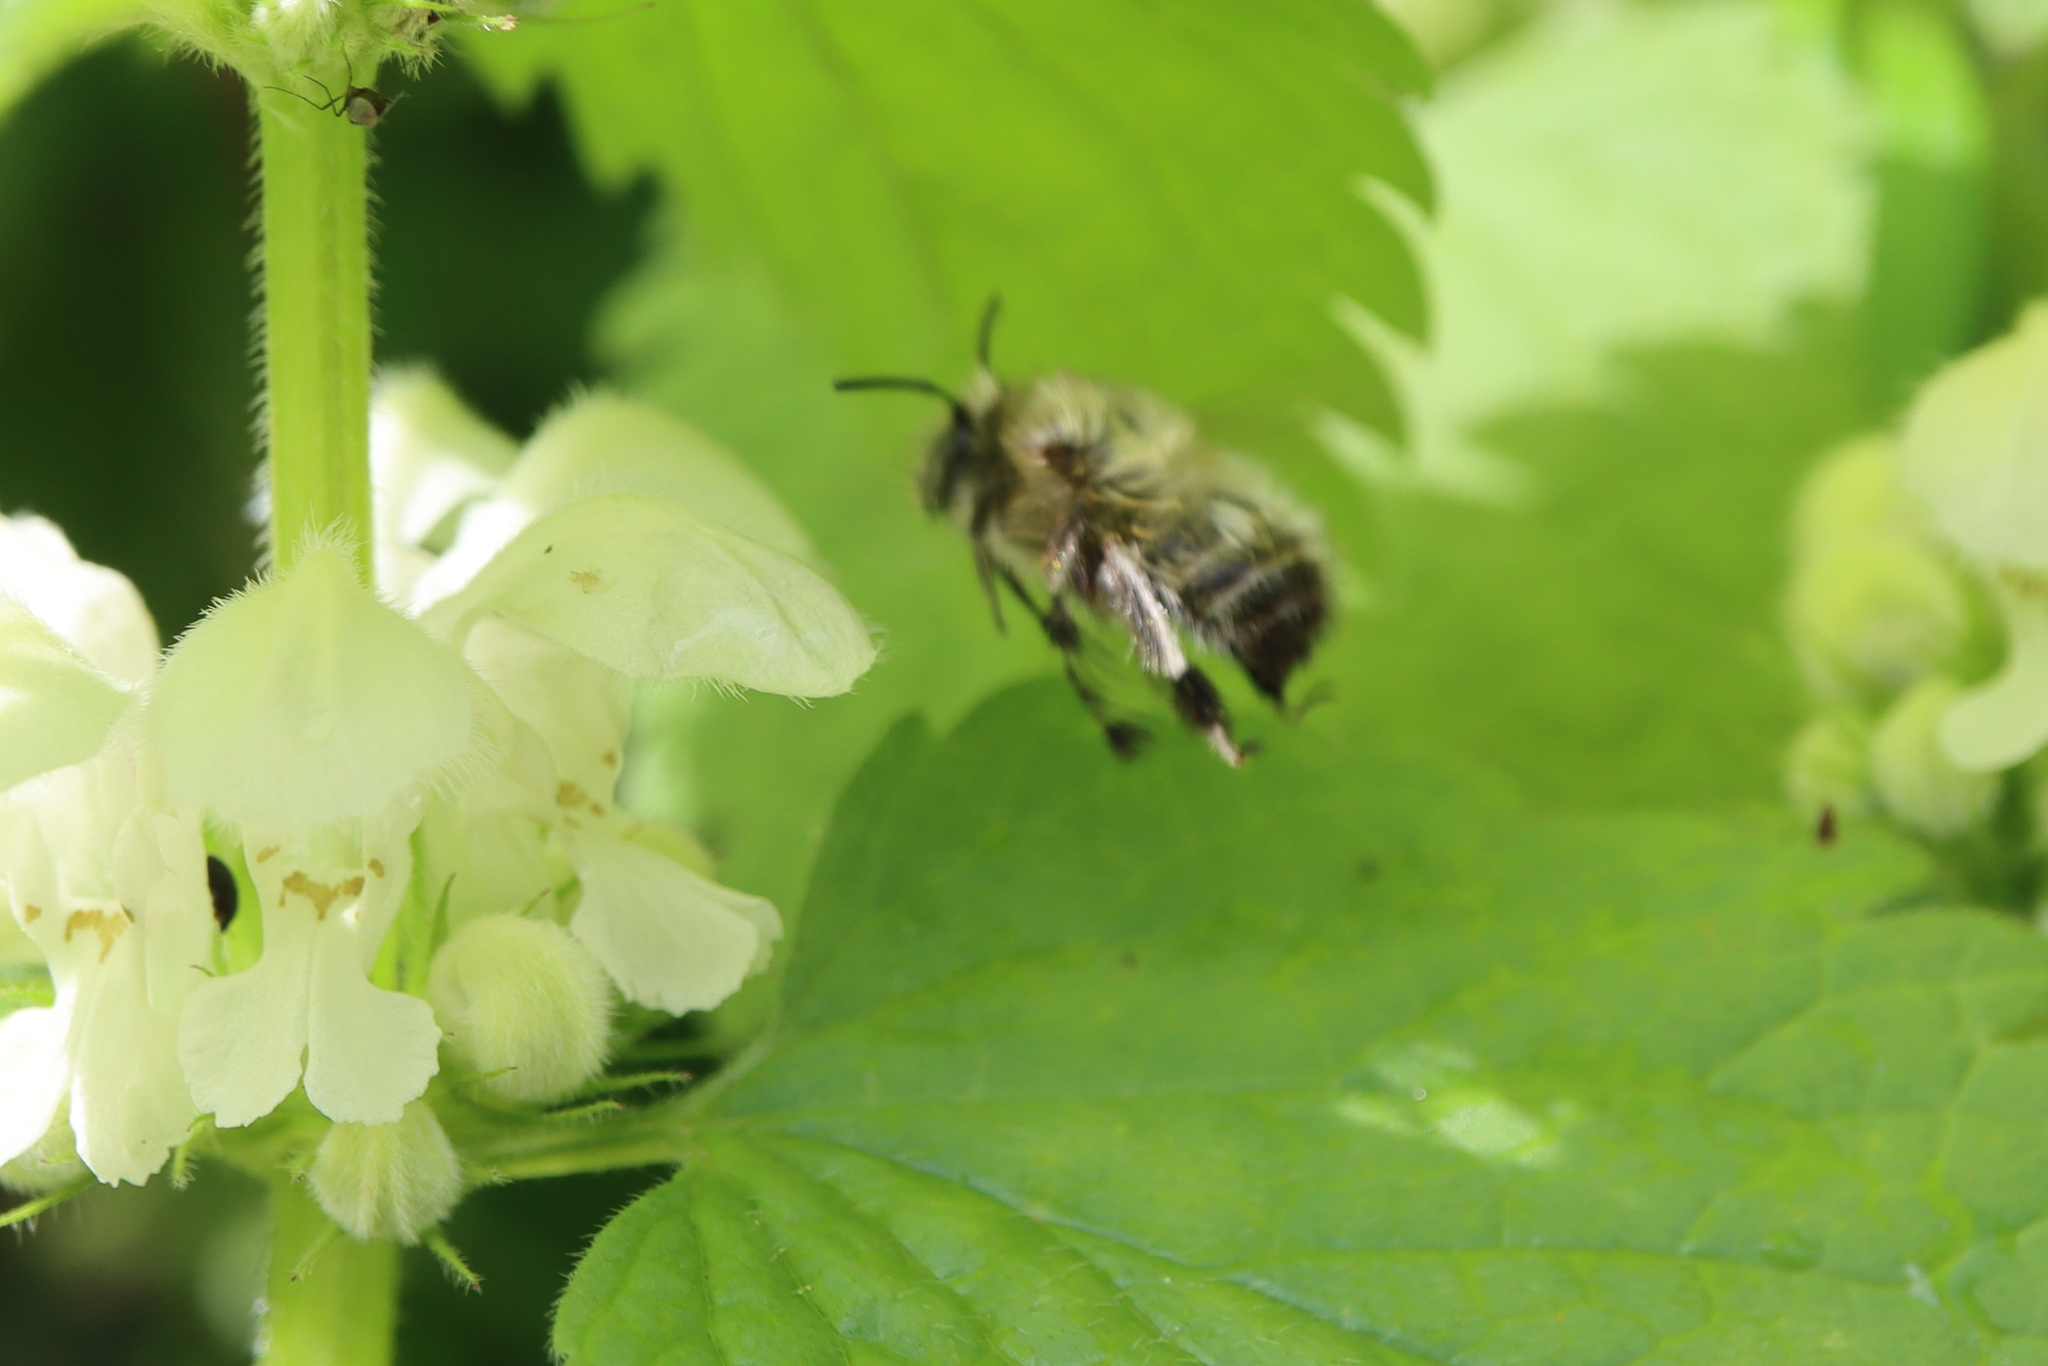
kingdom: Animalia
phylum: Arthropoda
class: Insecta
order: Hymenoptera
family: Apidae
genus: Anthophora
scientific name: Anthophora plumipes
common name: Hairy-footed flower bee
